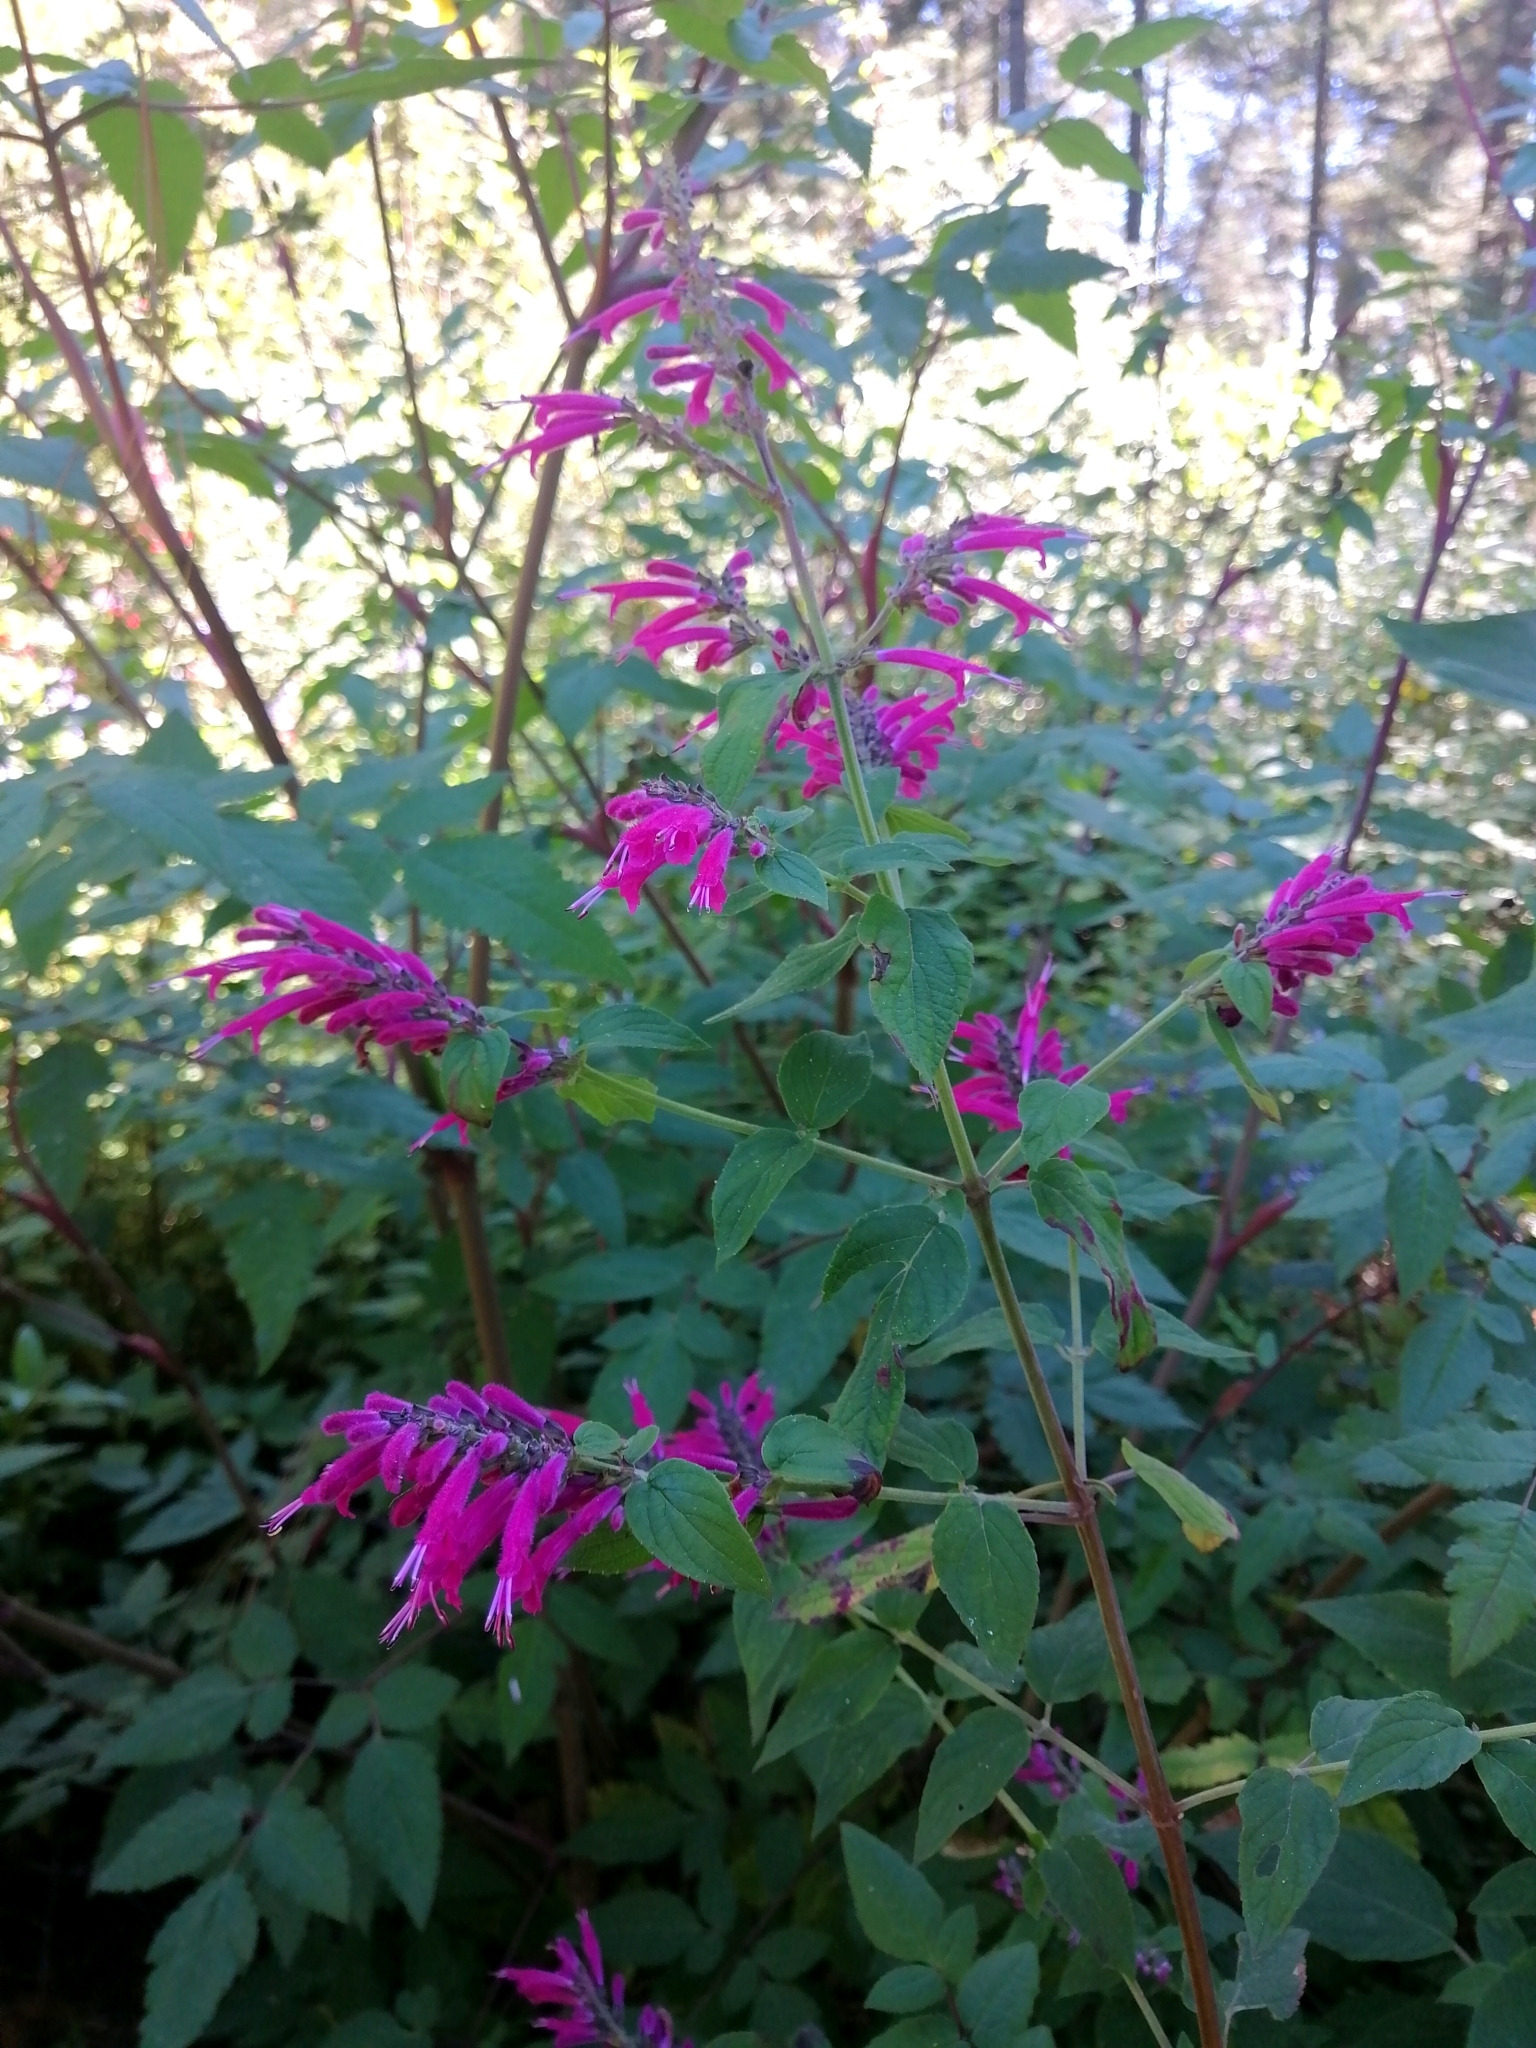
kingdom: Plantae
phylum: Tracheophyta
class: Magnoliopsida
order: Lamiales
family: Lamiaceae
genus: Salvia
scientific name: Salvia iodantha
